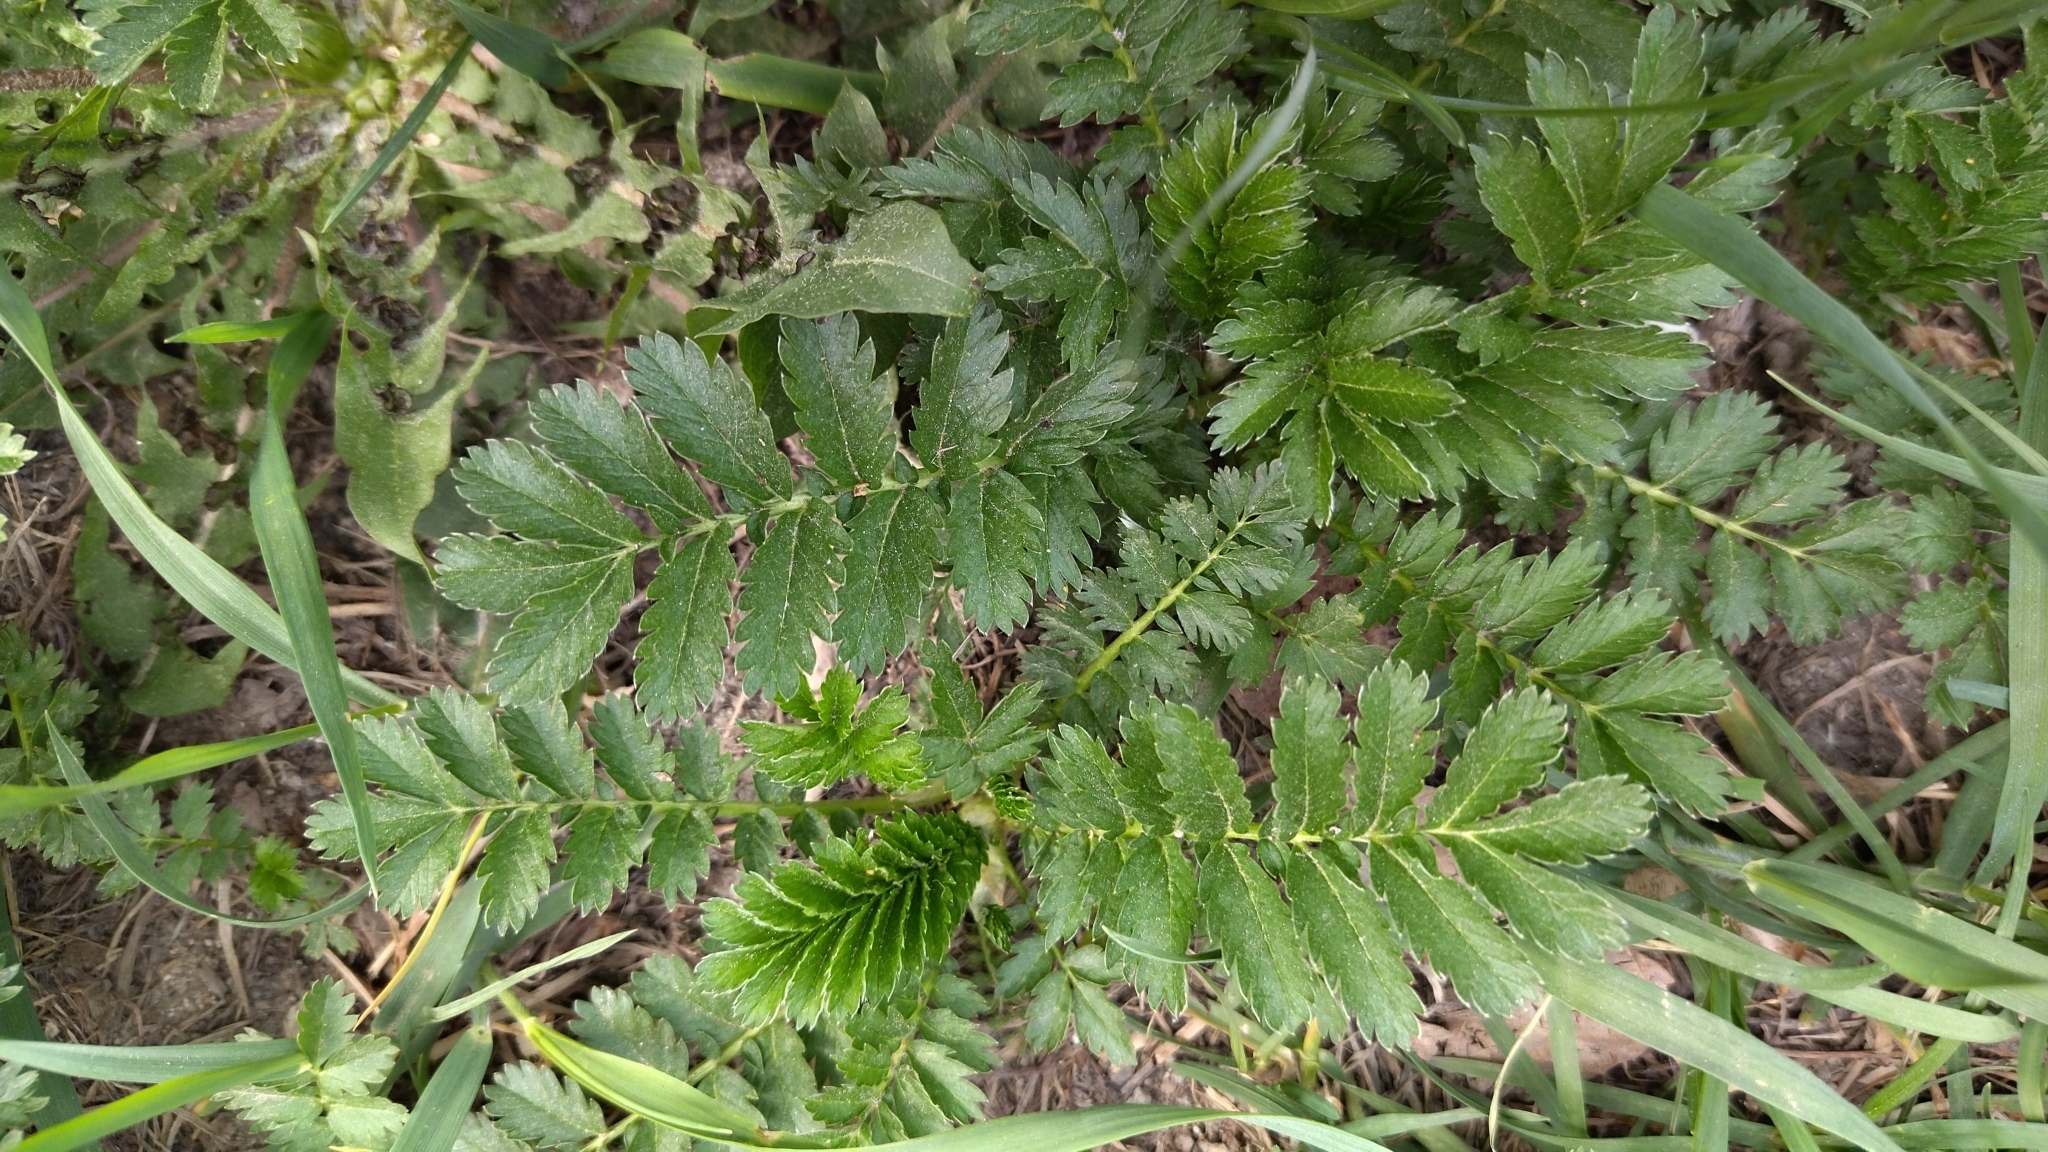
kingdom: Plantae
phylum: Tracheophyta
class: Magnoliopsida
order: Rosales
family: Rosaceae
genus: Argentina
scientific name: Argentina anserina
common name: Common silverweed
